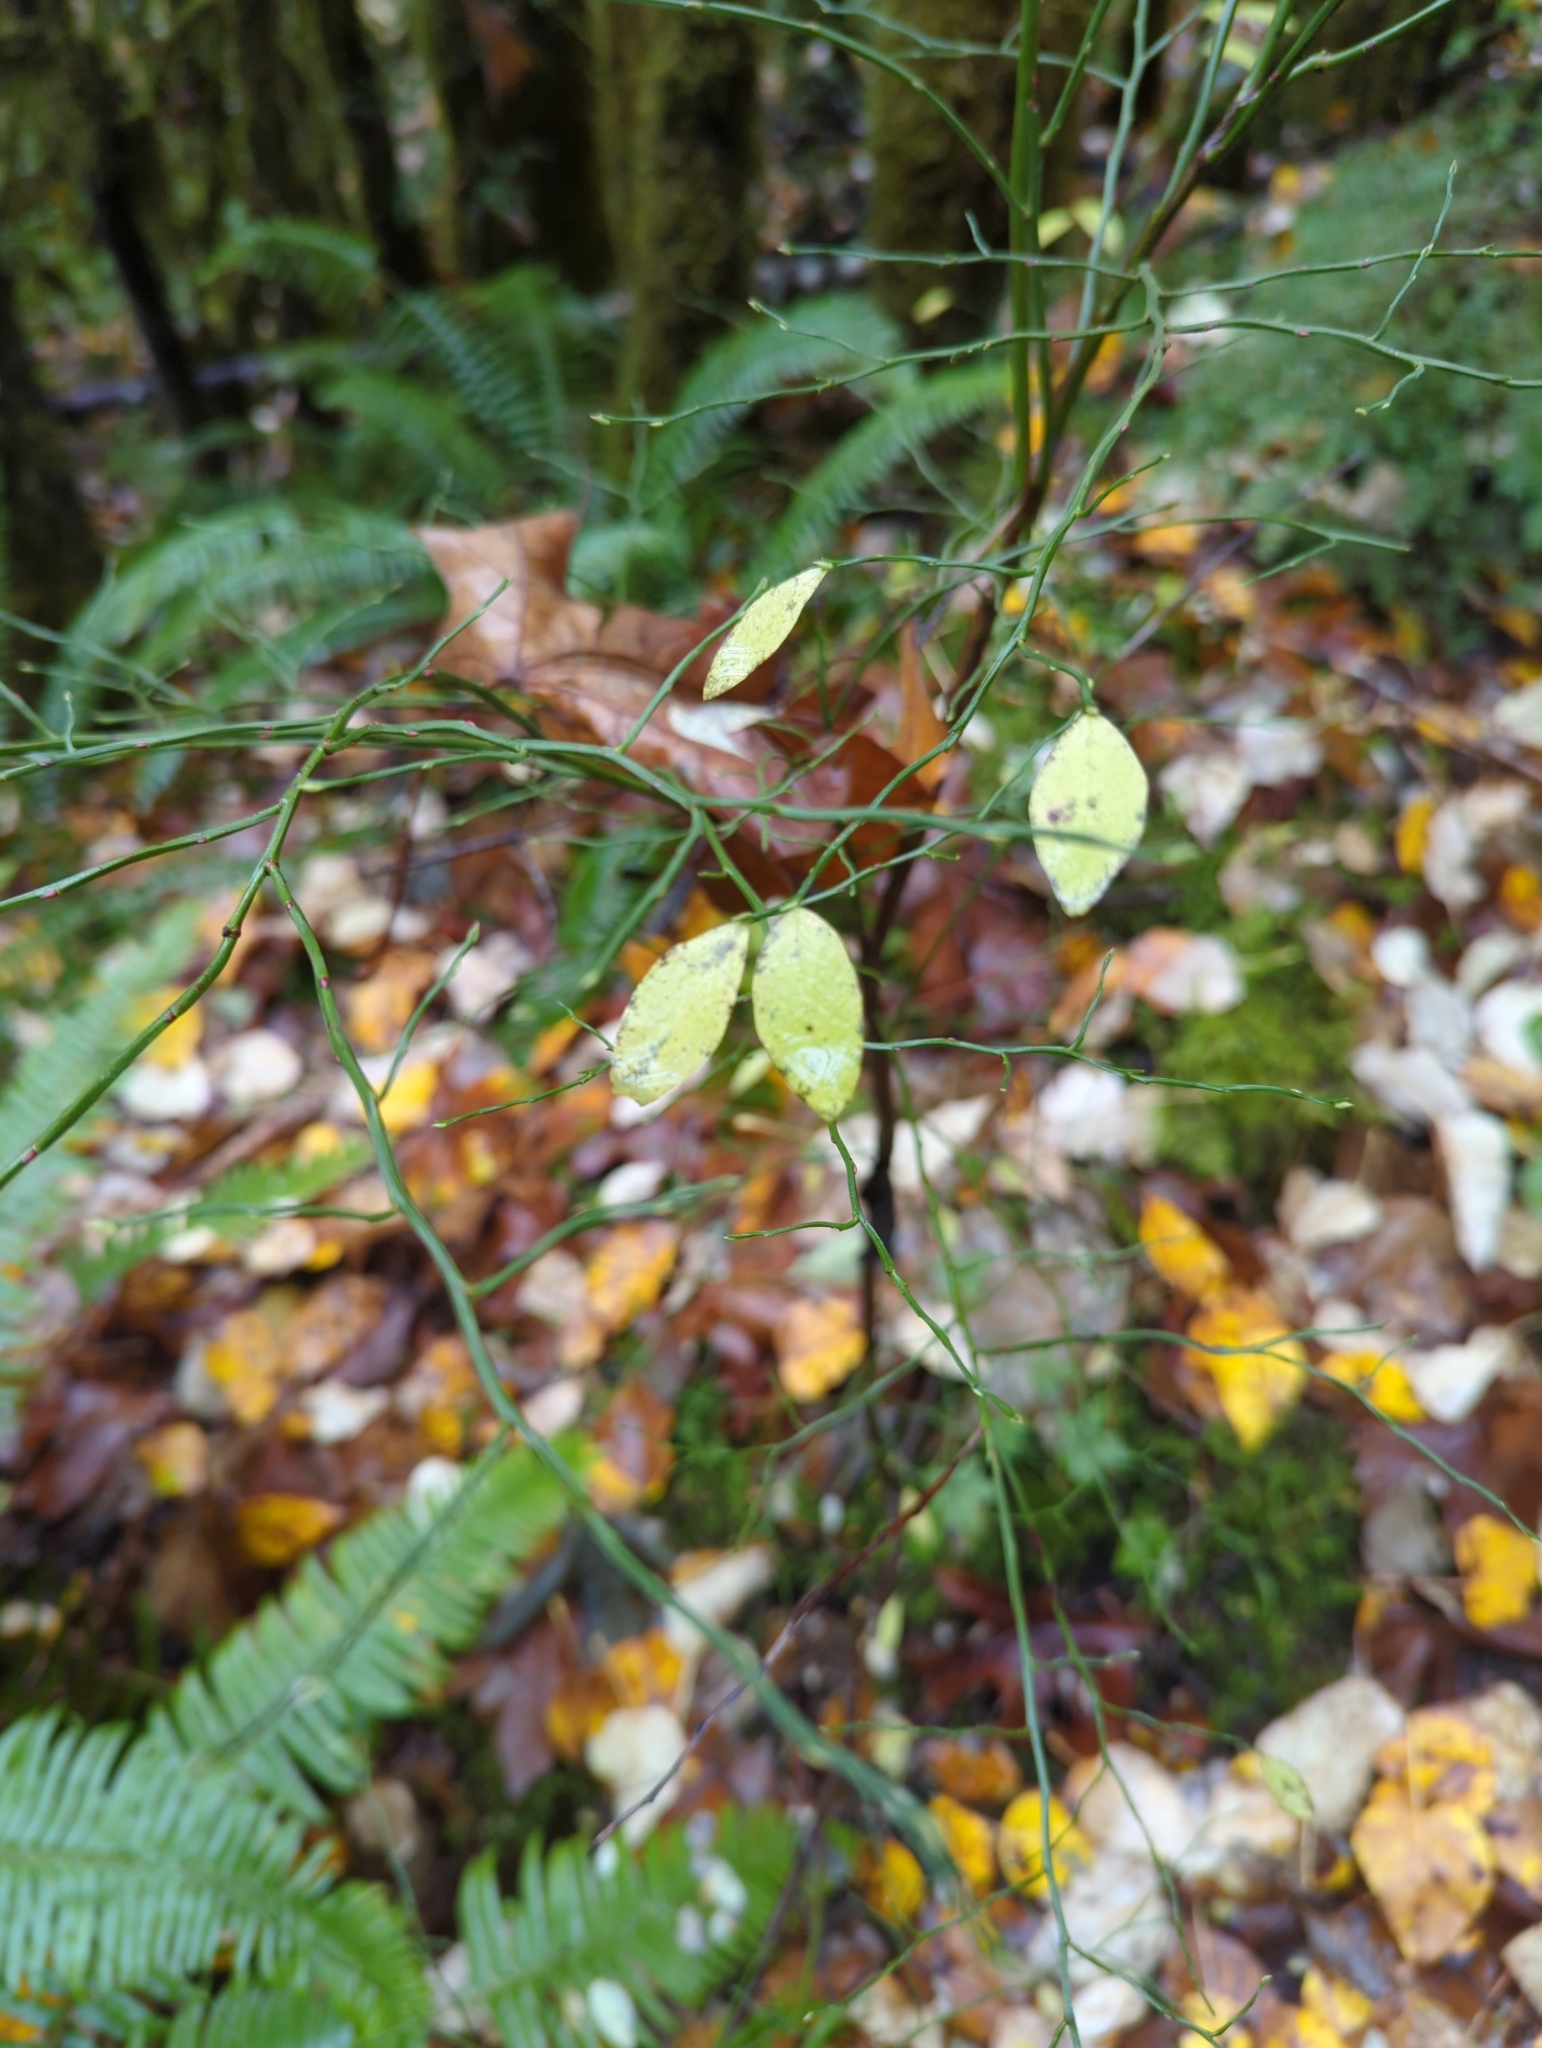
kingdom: Plantae
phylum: Tracheophyta
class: Magnoliopsida
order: Ericales
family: Ericaceae
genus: Vaccinium
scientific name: Vaccinium parvifolium
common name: Red-huckleberry
